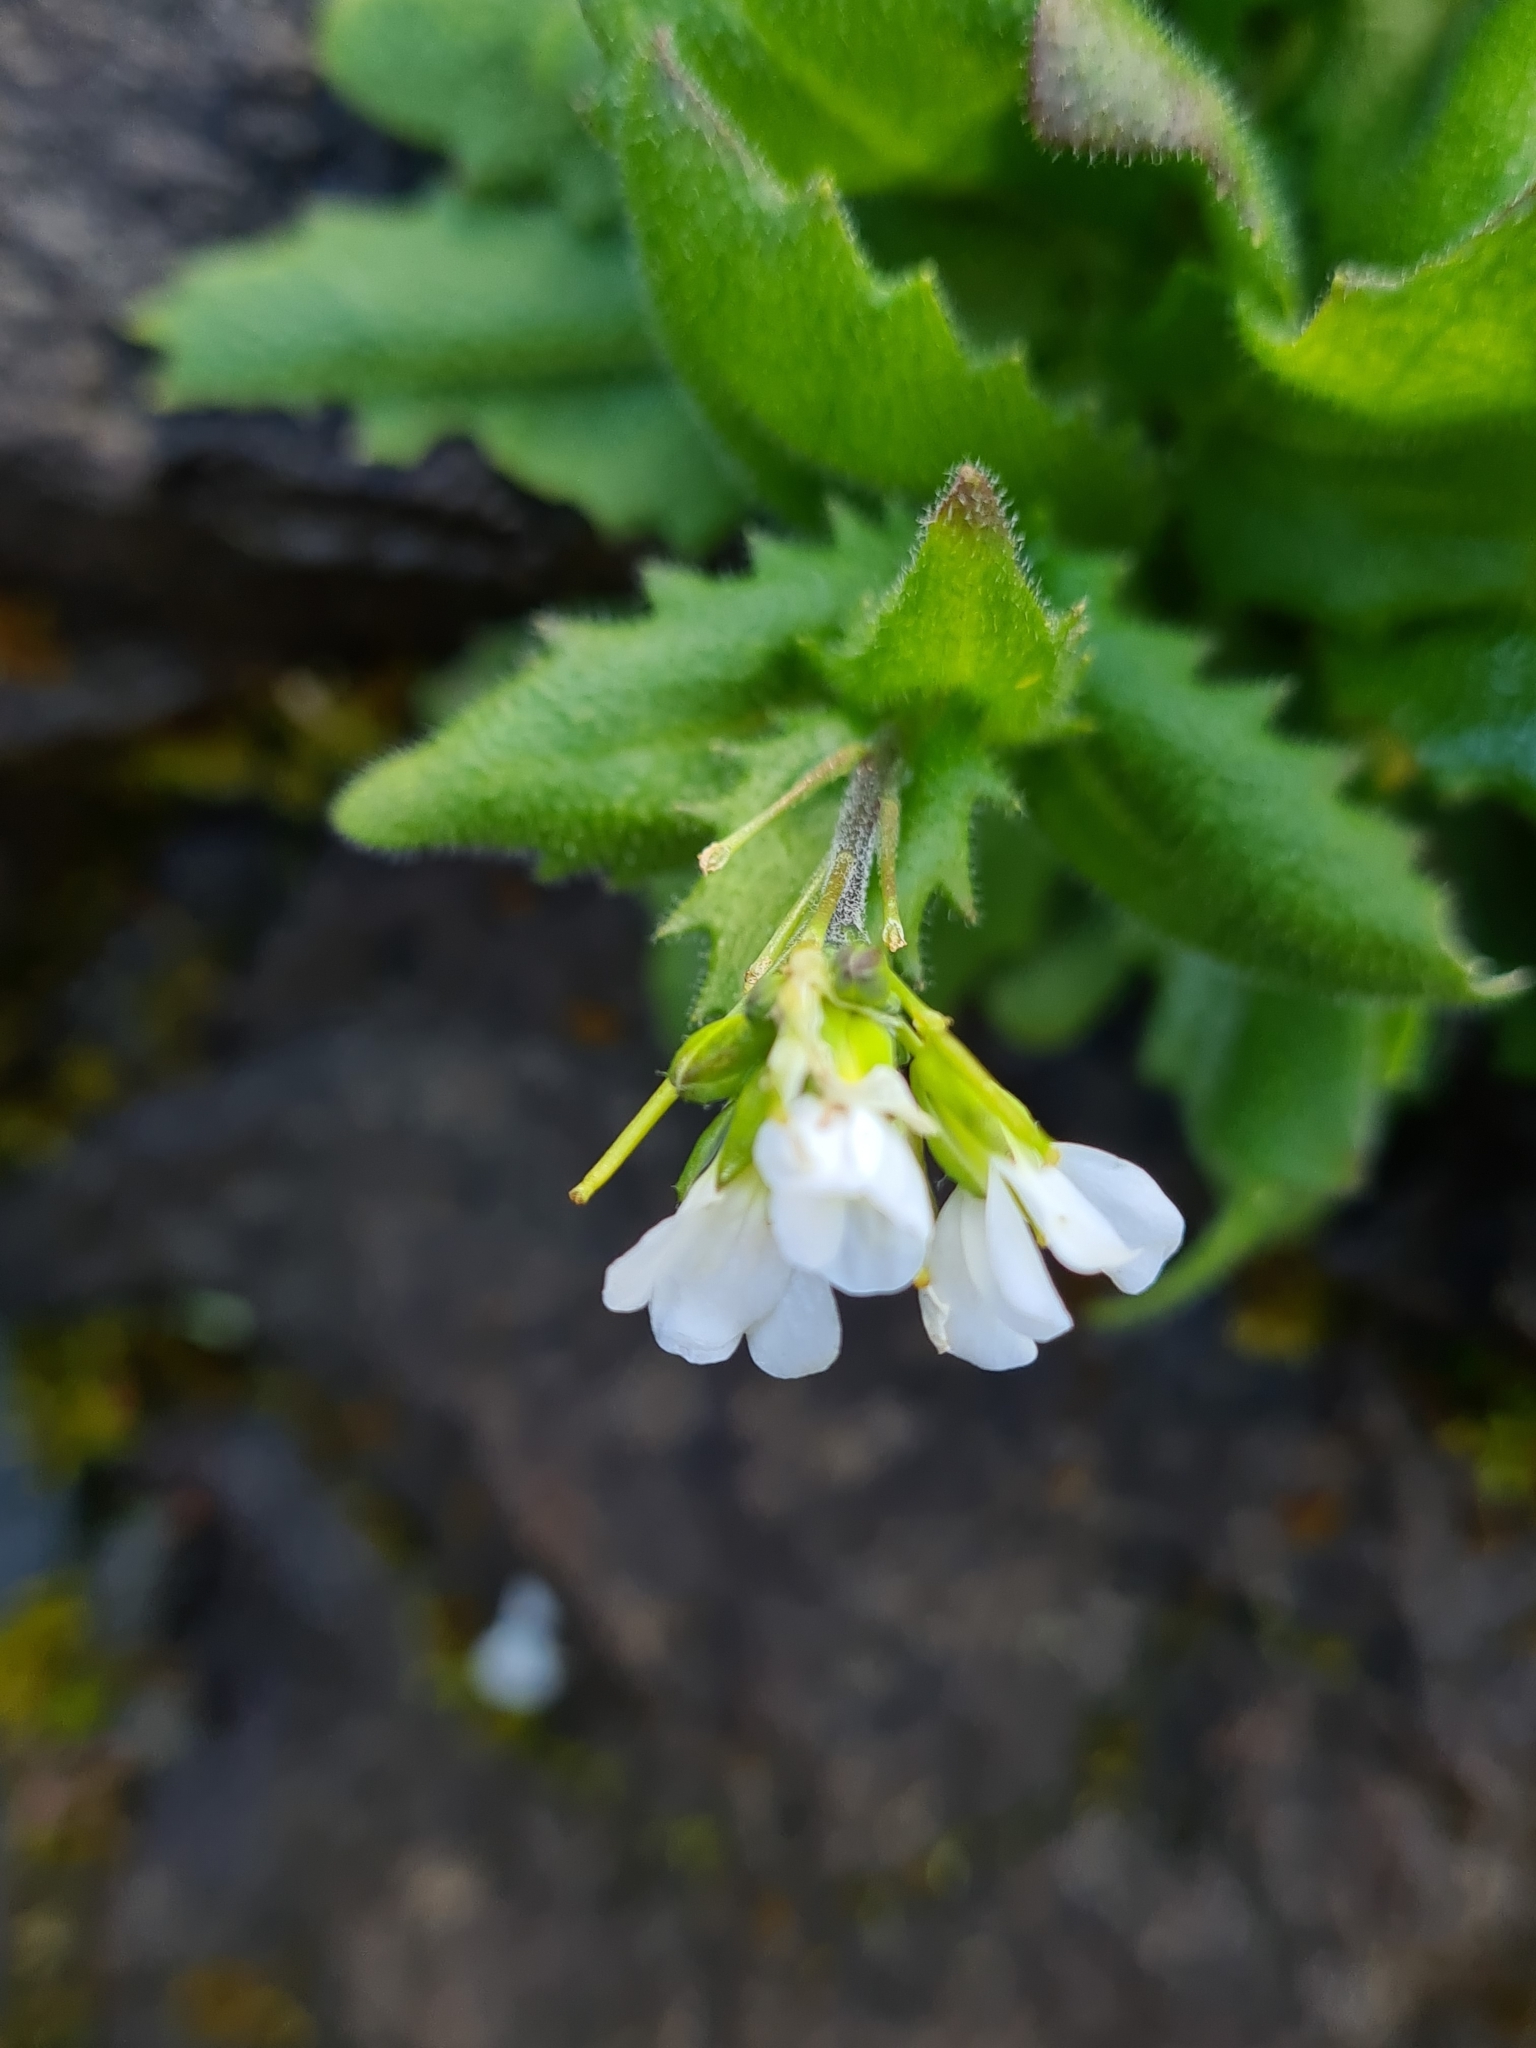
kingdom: Plantae
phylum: Tracheophyta
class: Magnoliopsida
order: Brassicales
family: Brassicaceae
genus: Arabis
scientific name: Arabis alpina
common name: Alpine rock-cress
